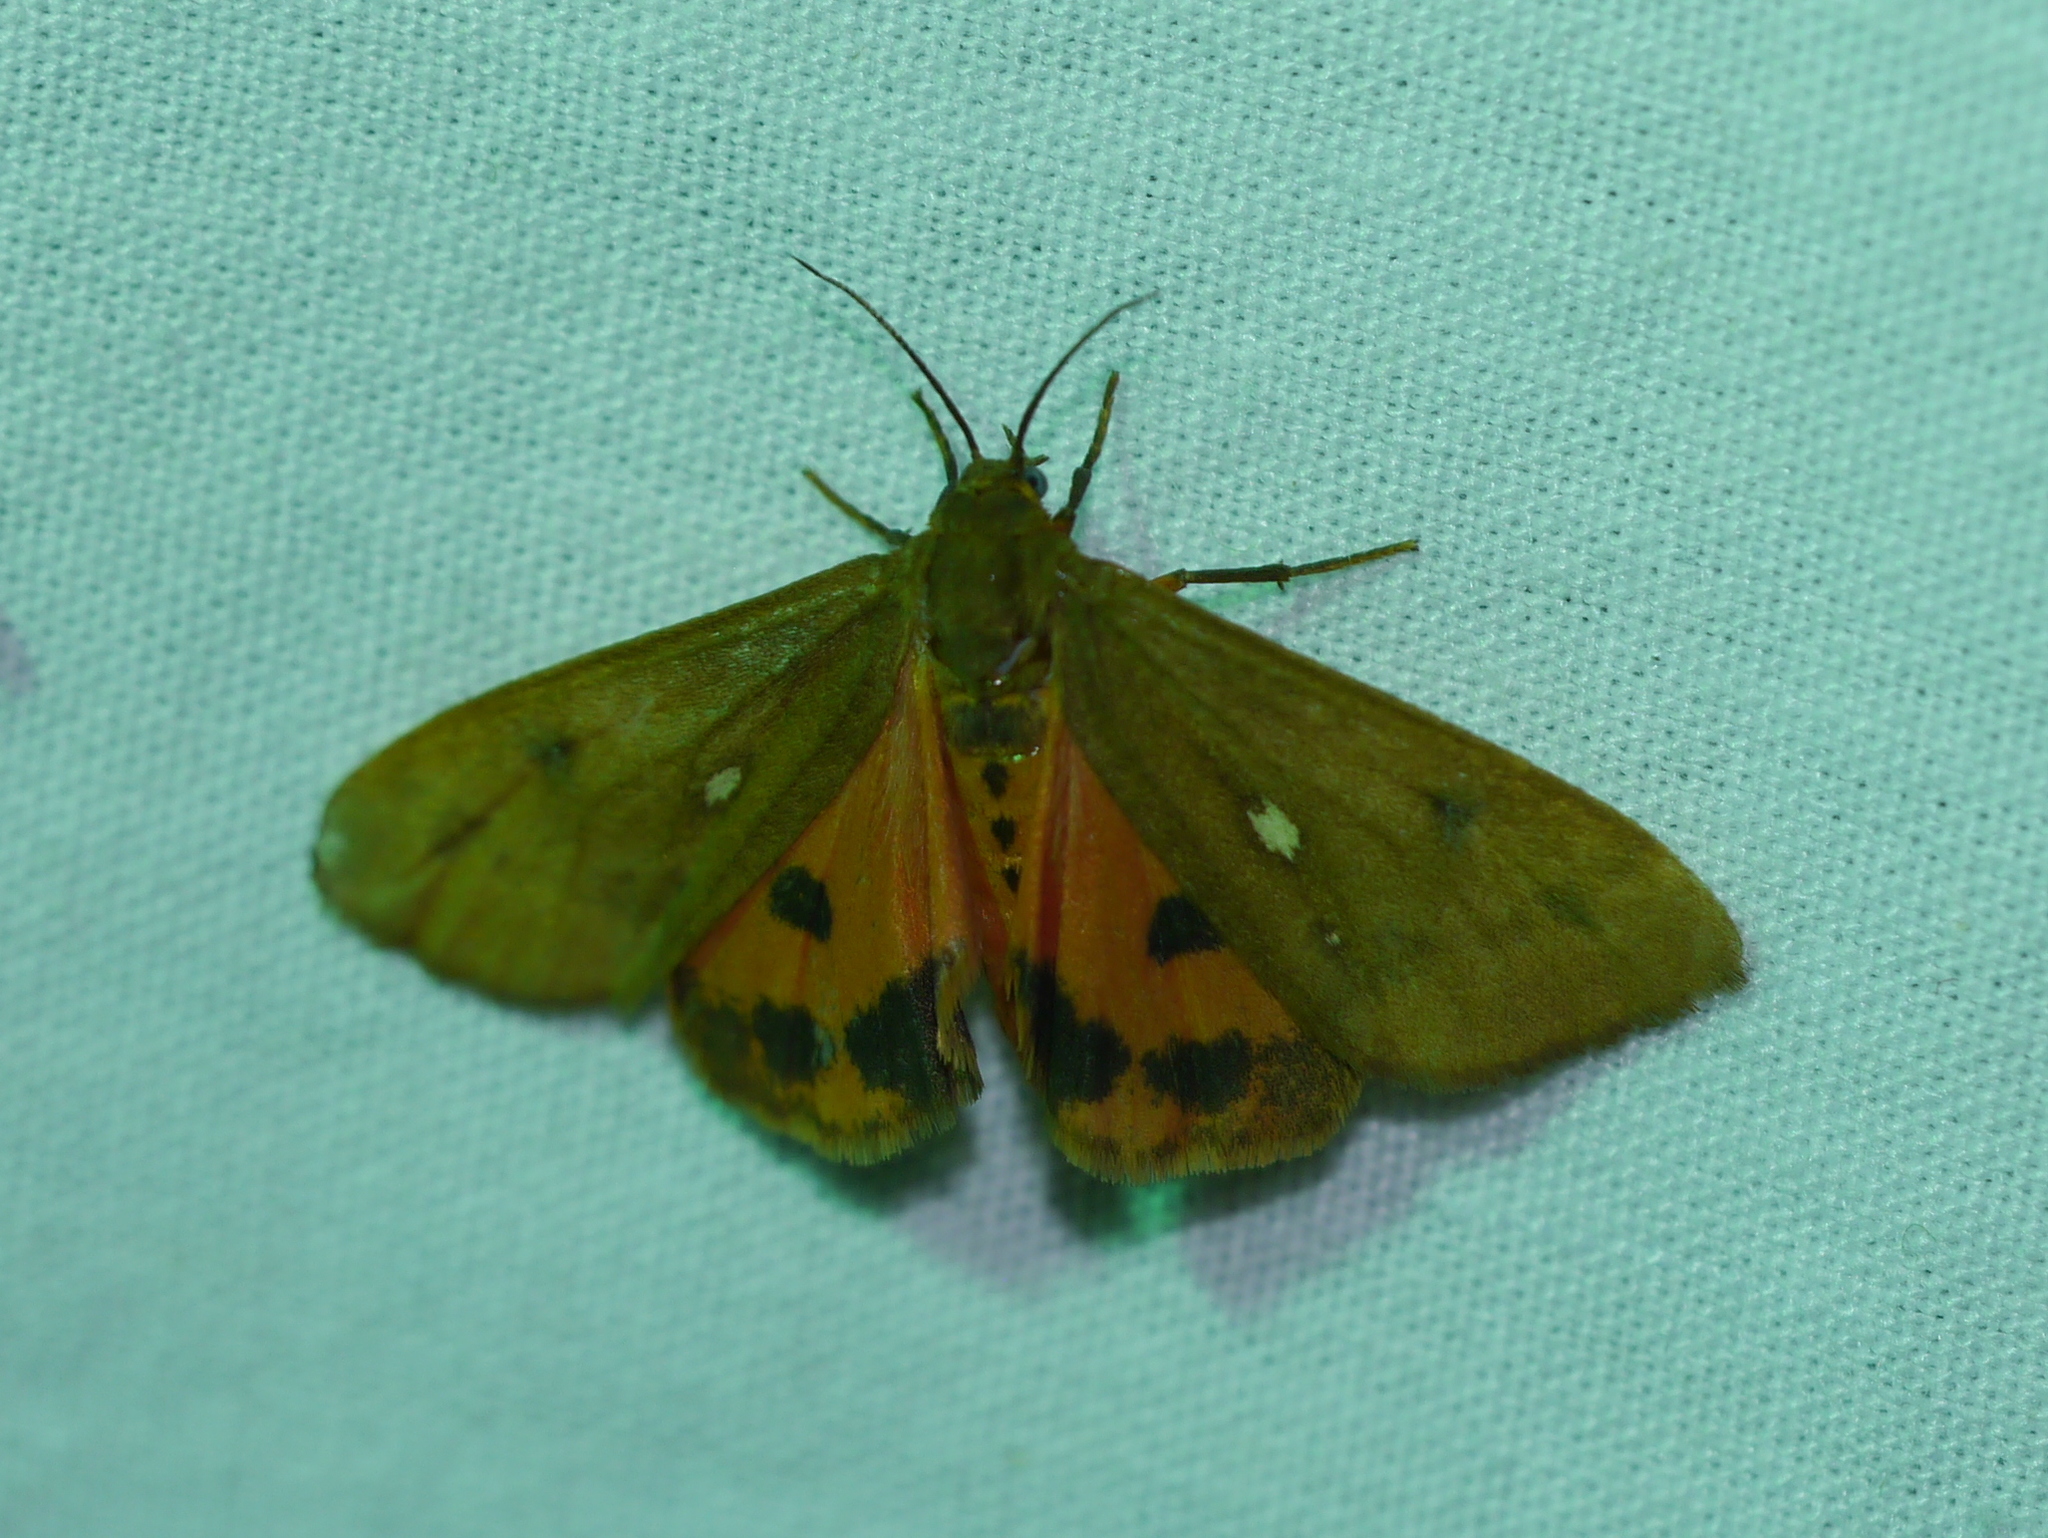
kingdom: Animalia
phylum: Arthropoda
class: Insecta
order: Lepidoptera
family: Erebidae
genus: Virbia
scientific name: Virbia aurantiaca
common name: Orange virbia moth
